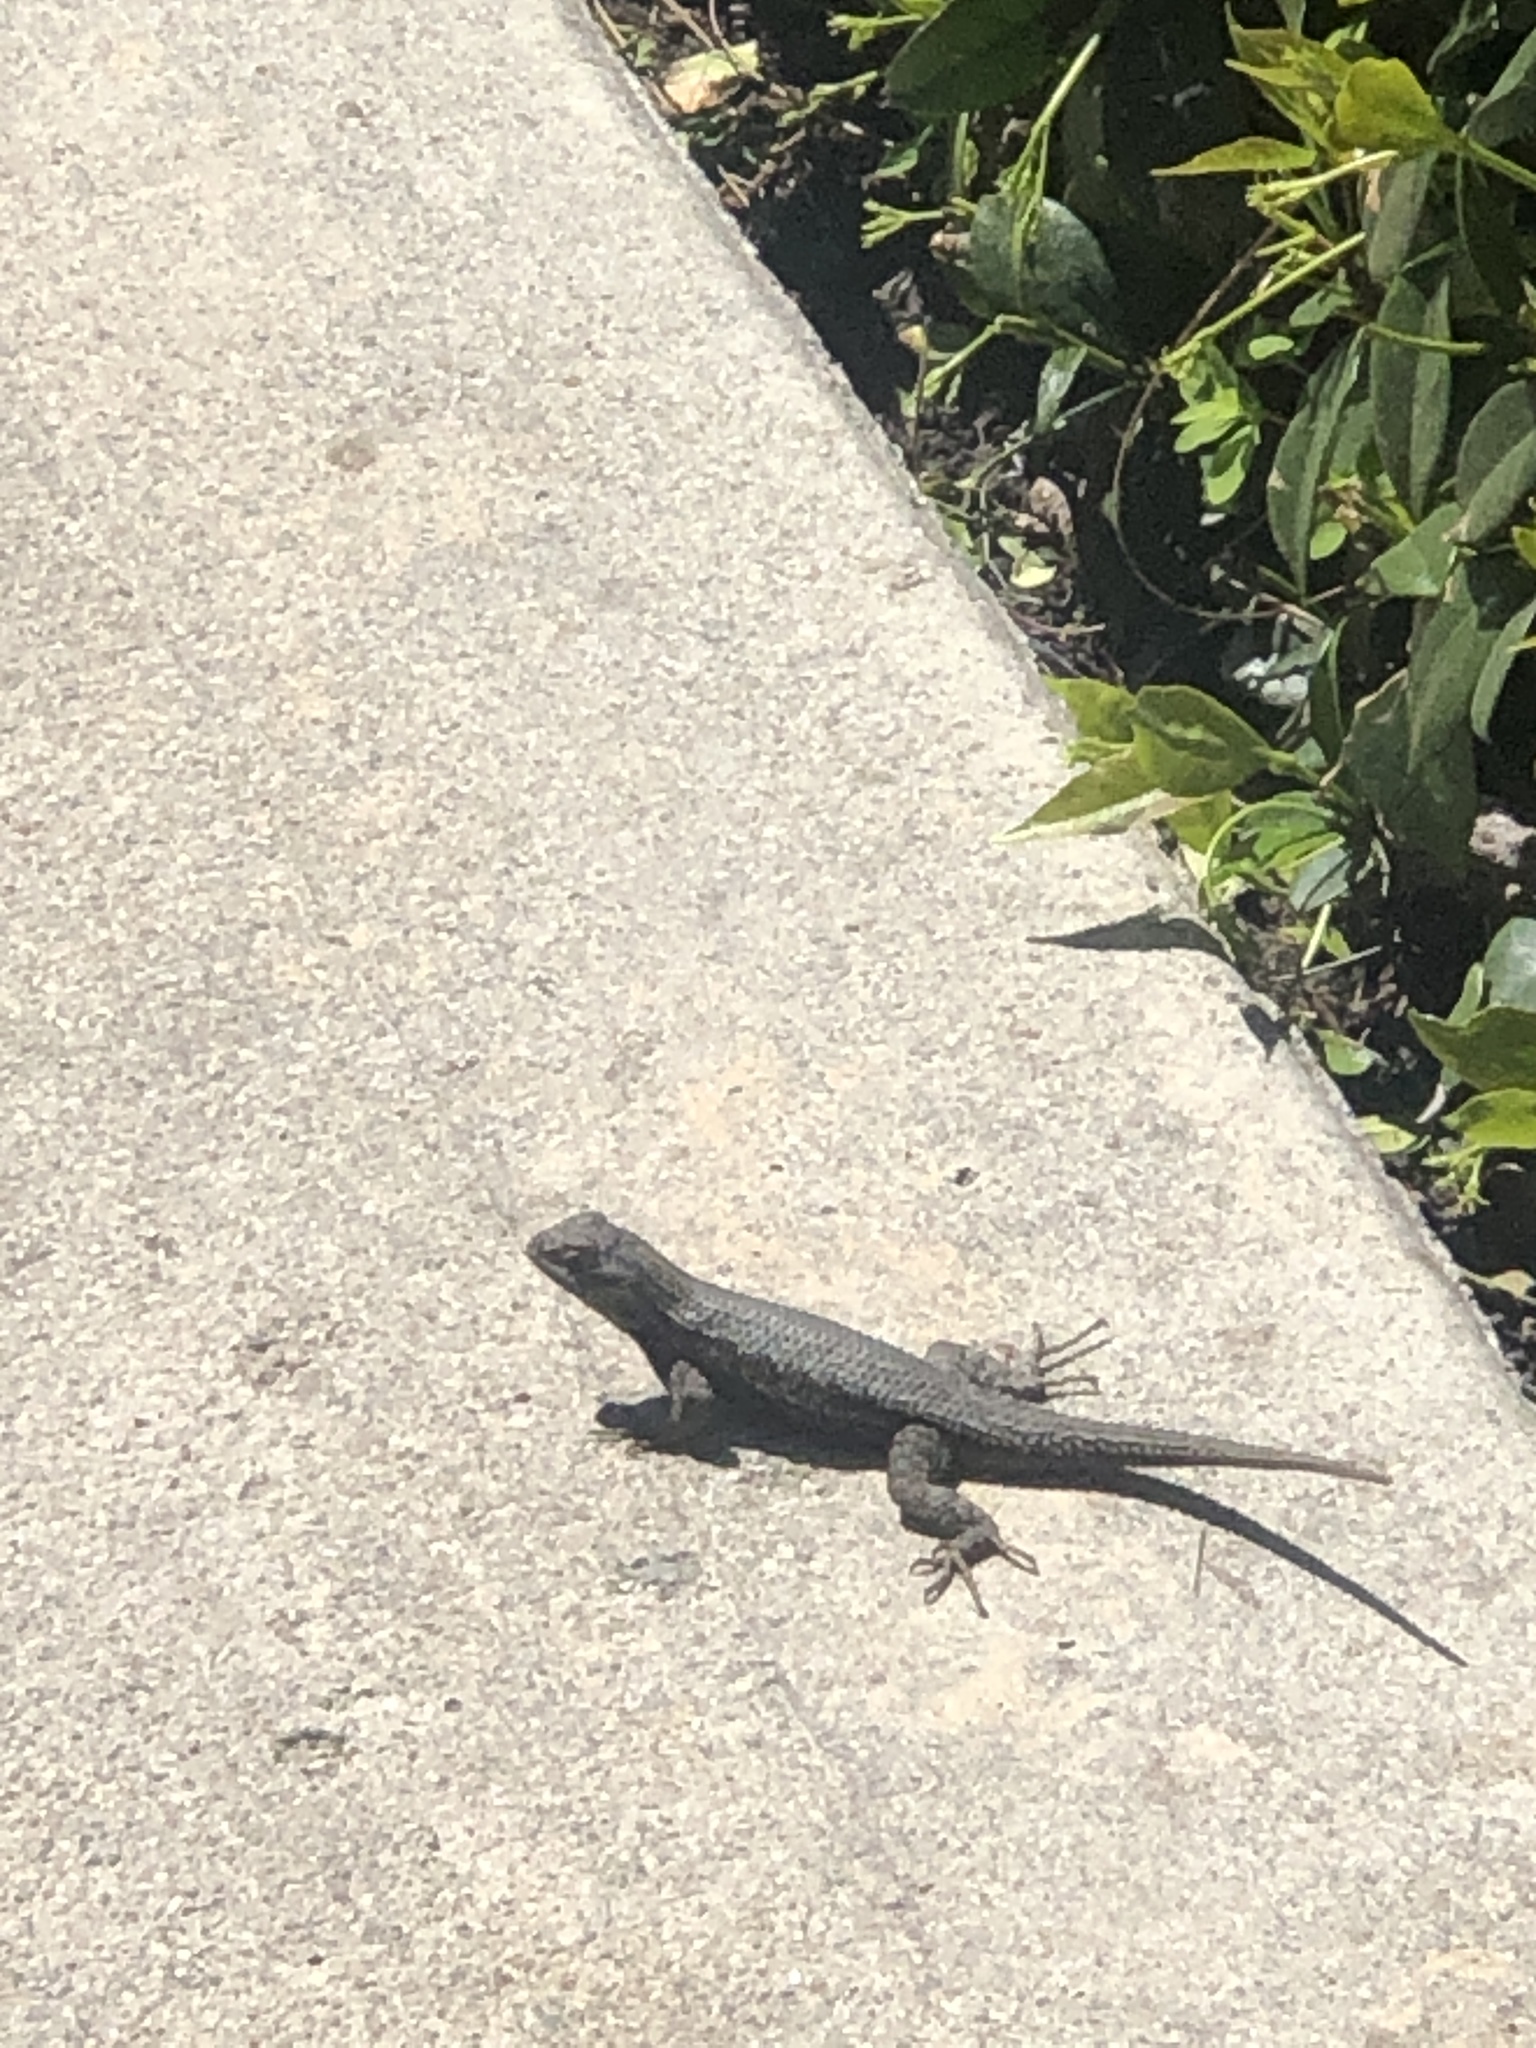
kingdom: Animalia
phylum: Chordata
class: Squamata
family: Phrynosomatidae
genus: Sceloporus
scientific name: Sceloporus occidentalis
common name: Western fence lizard
